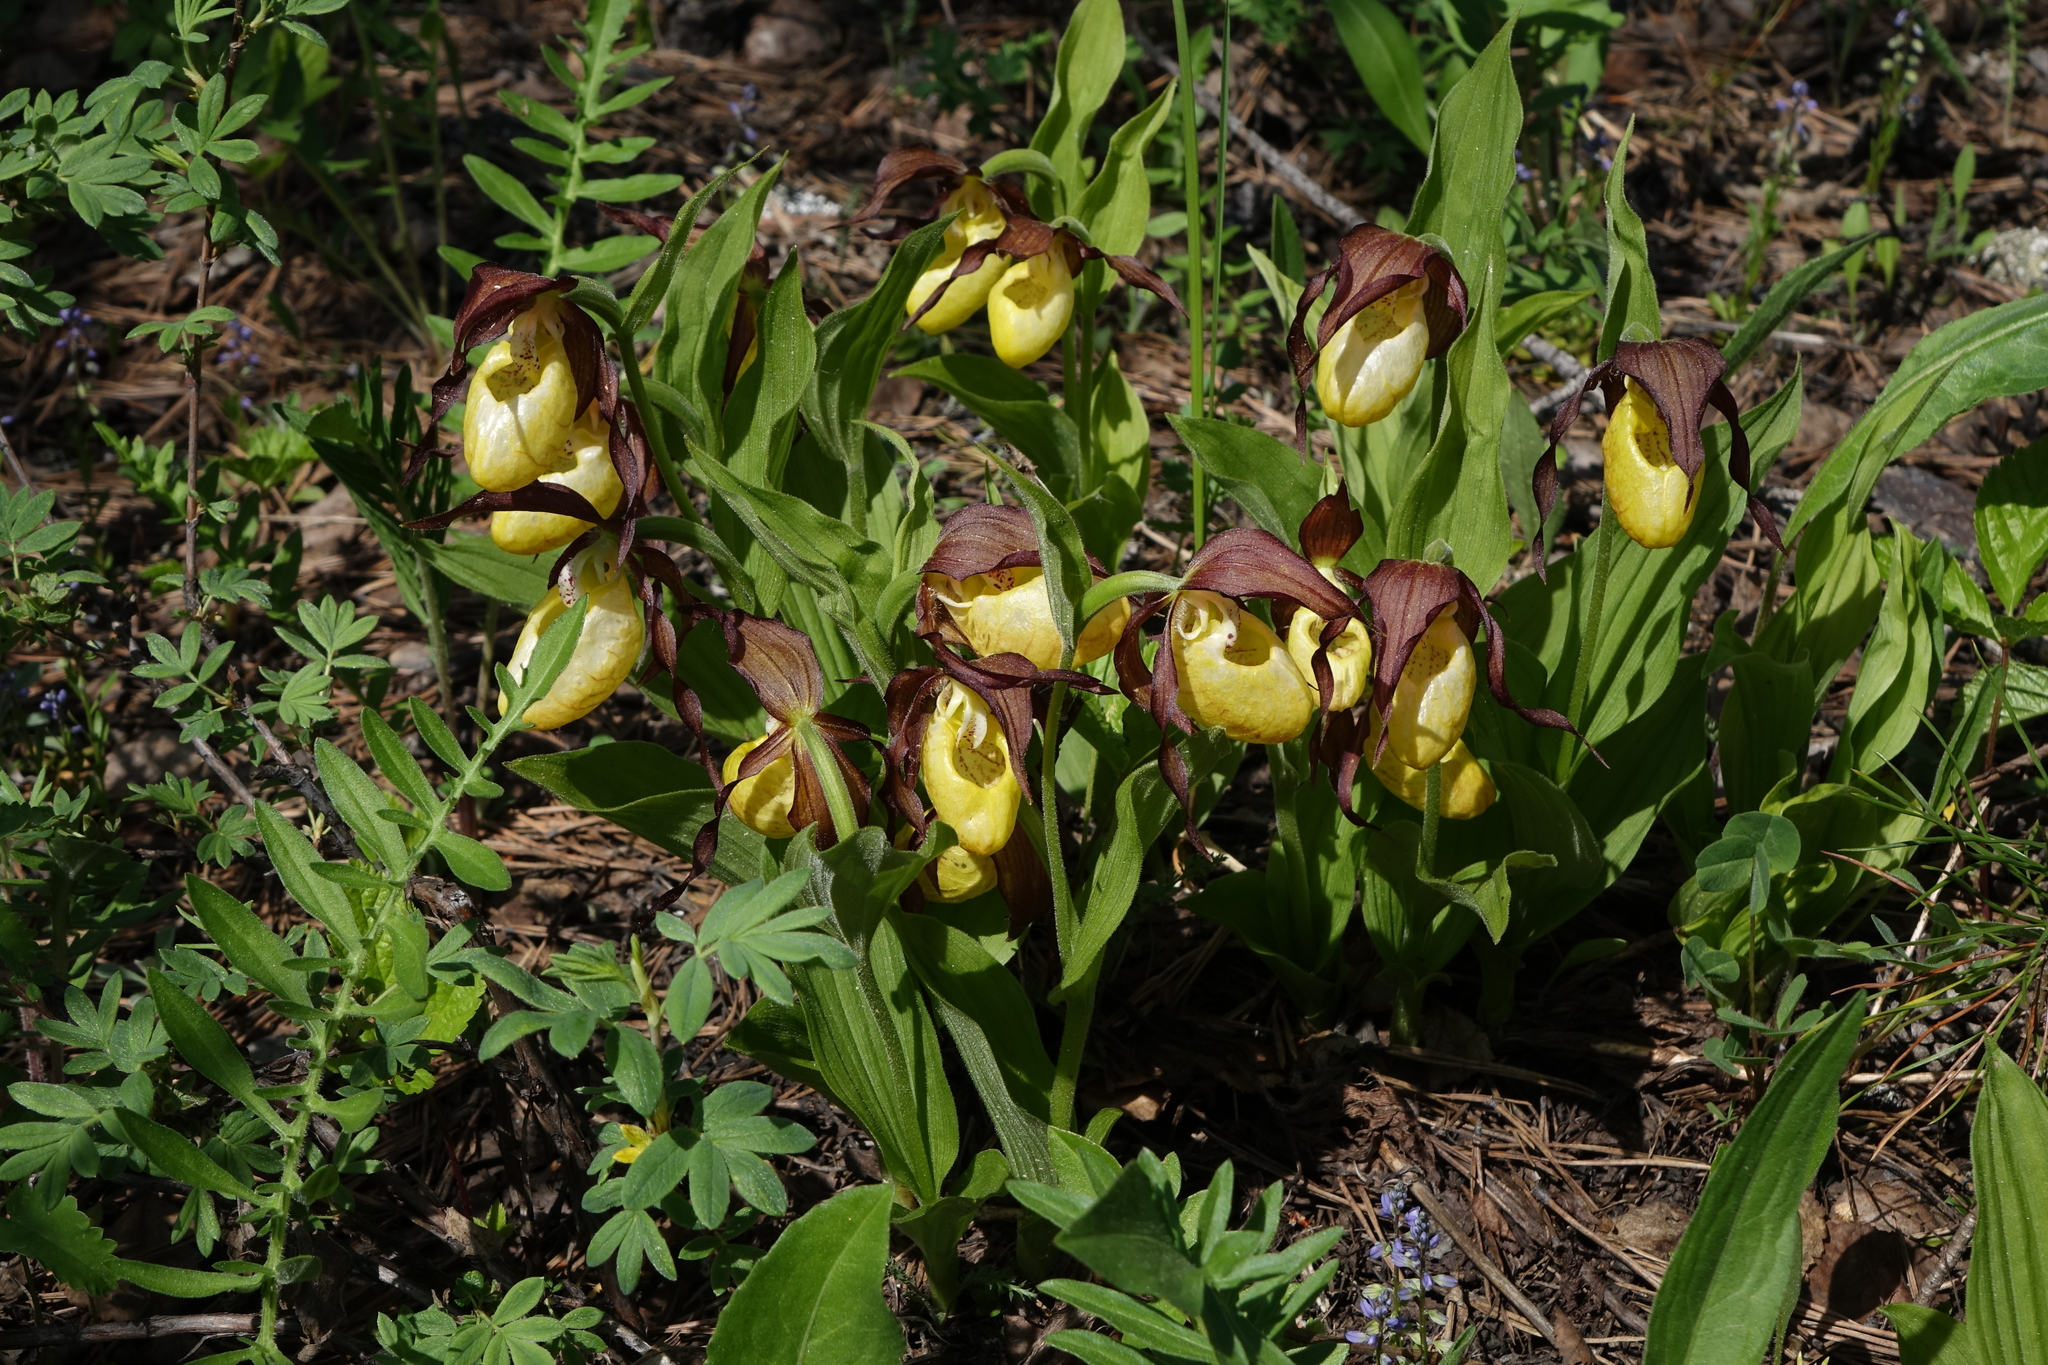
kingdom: Plantae
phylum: Tracheophyta
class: Liliopsida
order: Asparagales
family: Orchidaceae
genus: Cypripedium
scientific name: Cypripedium calceolus
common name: Lady's-slipper
